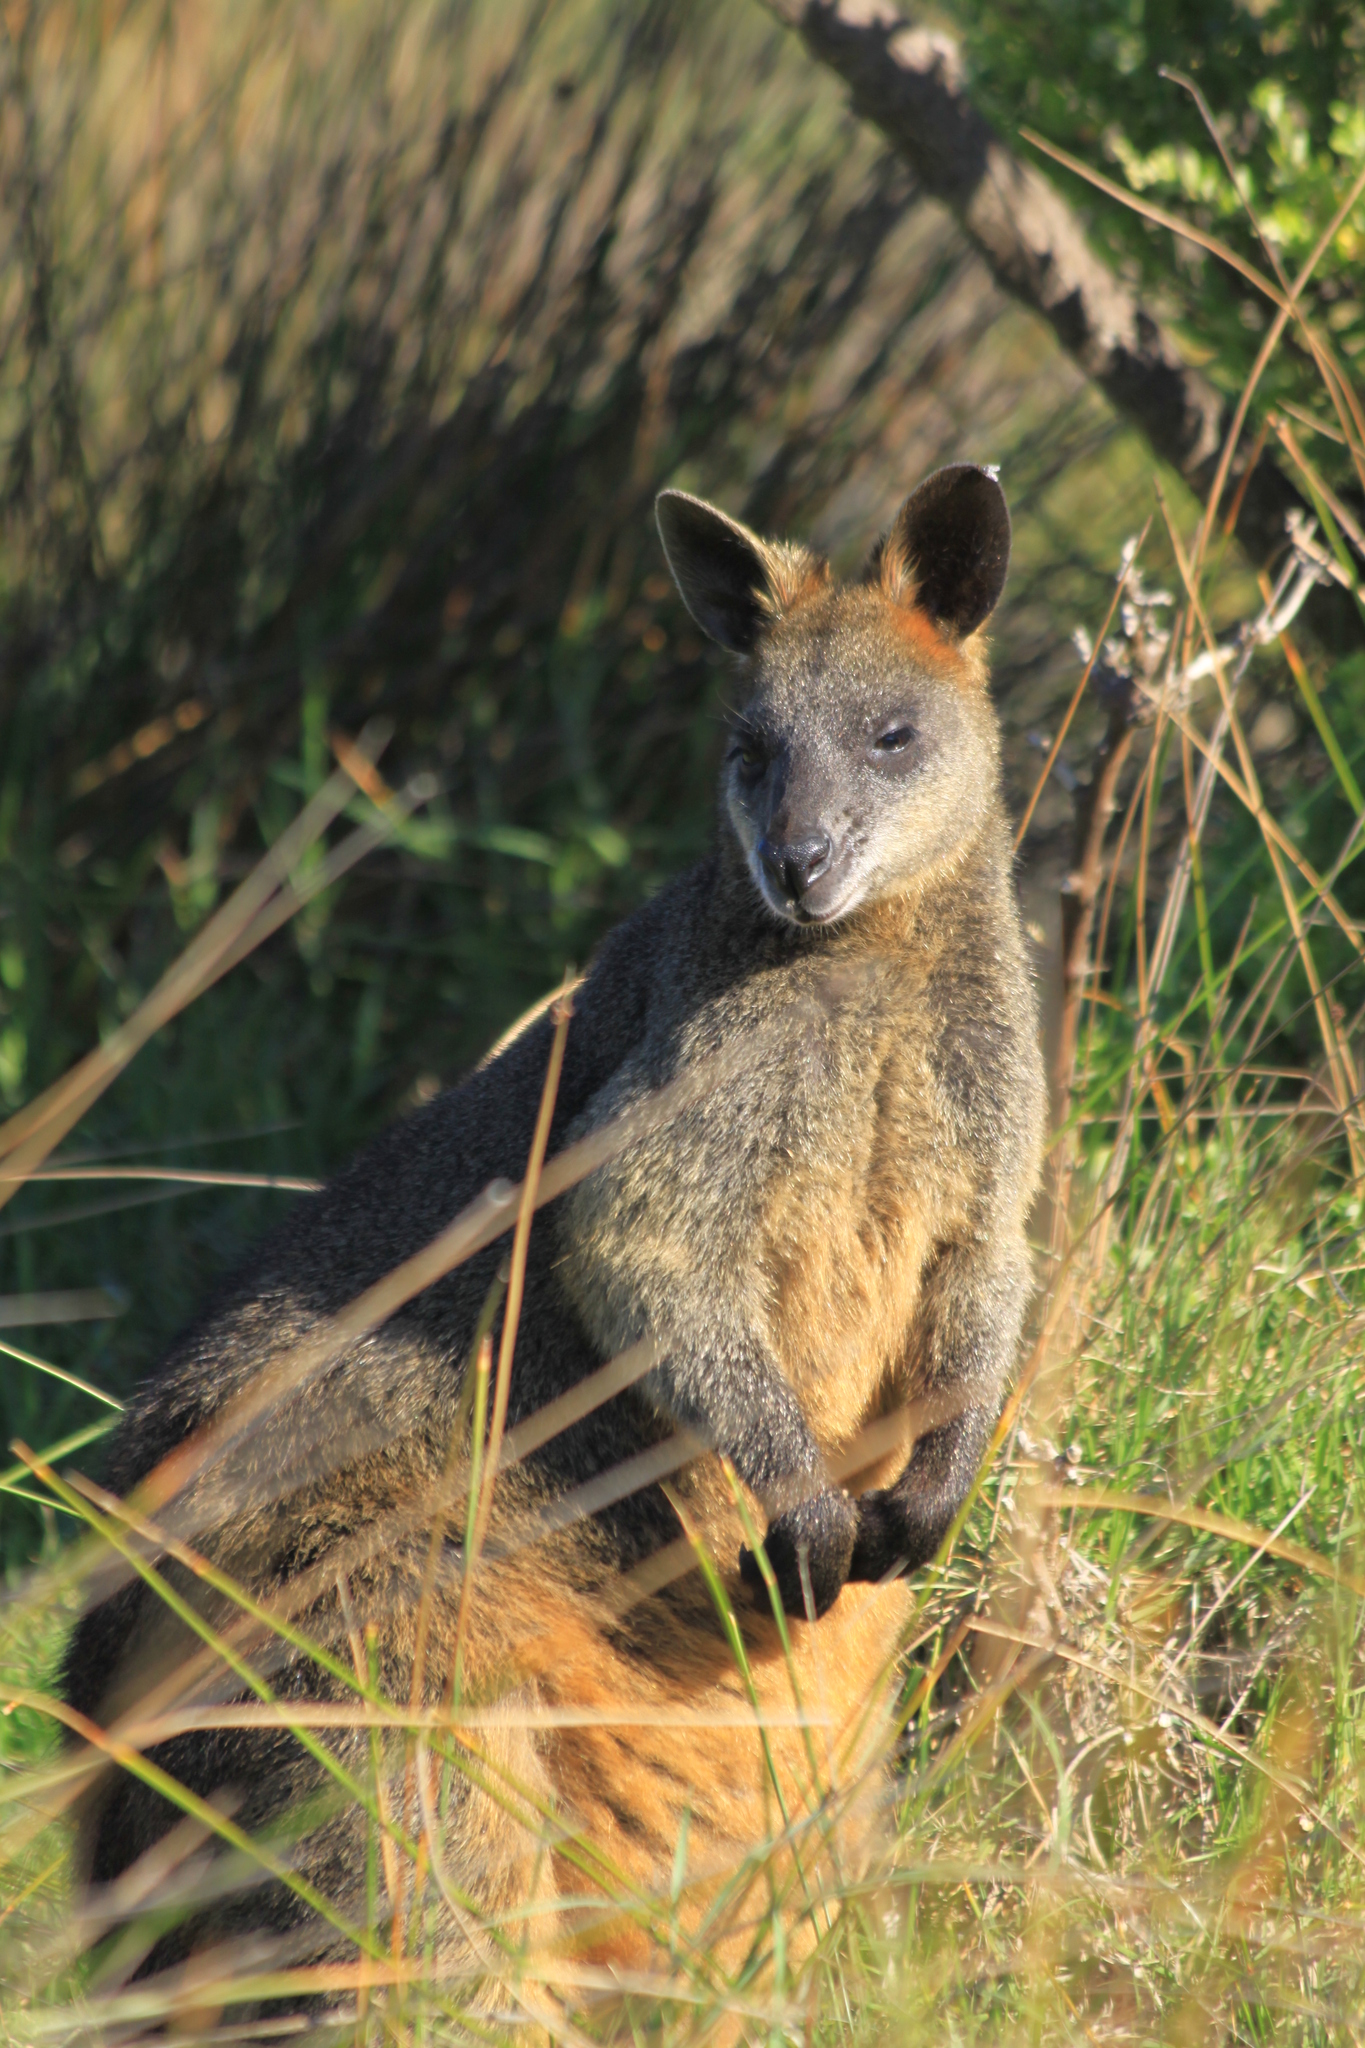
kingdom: Animalia
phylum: Chordata
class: Mammalia
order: Diprotodontia
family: Macropodidae
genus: Wallabia
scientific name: Wallabia bicolor
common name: Swamp wallaby
